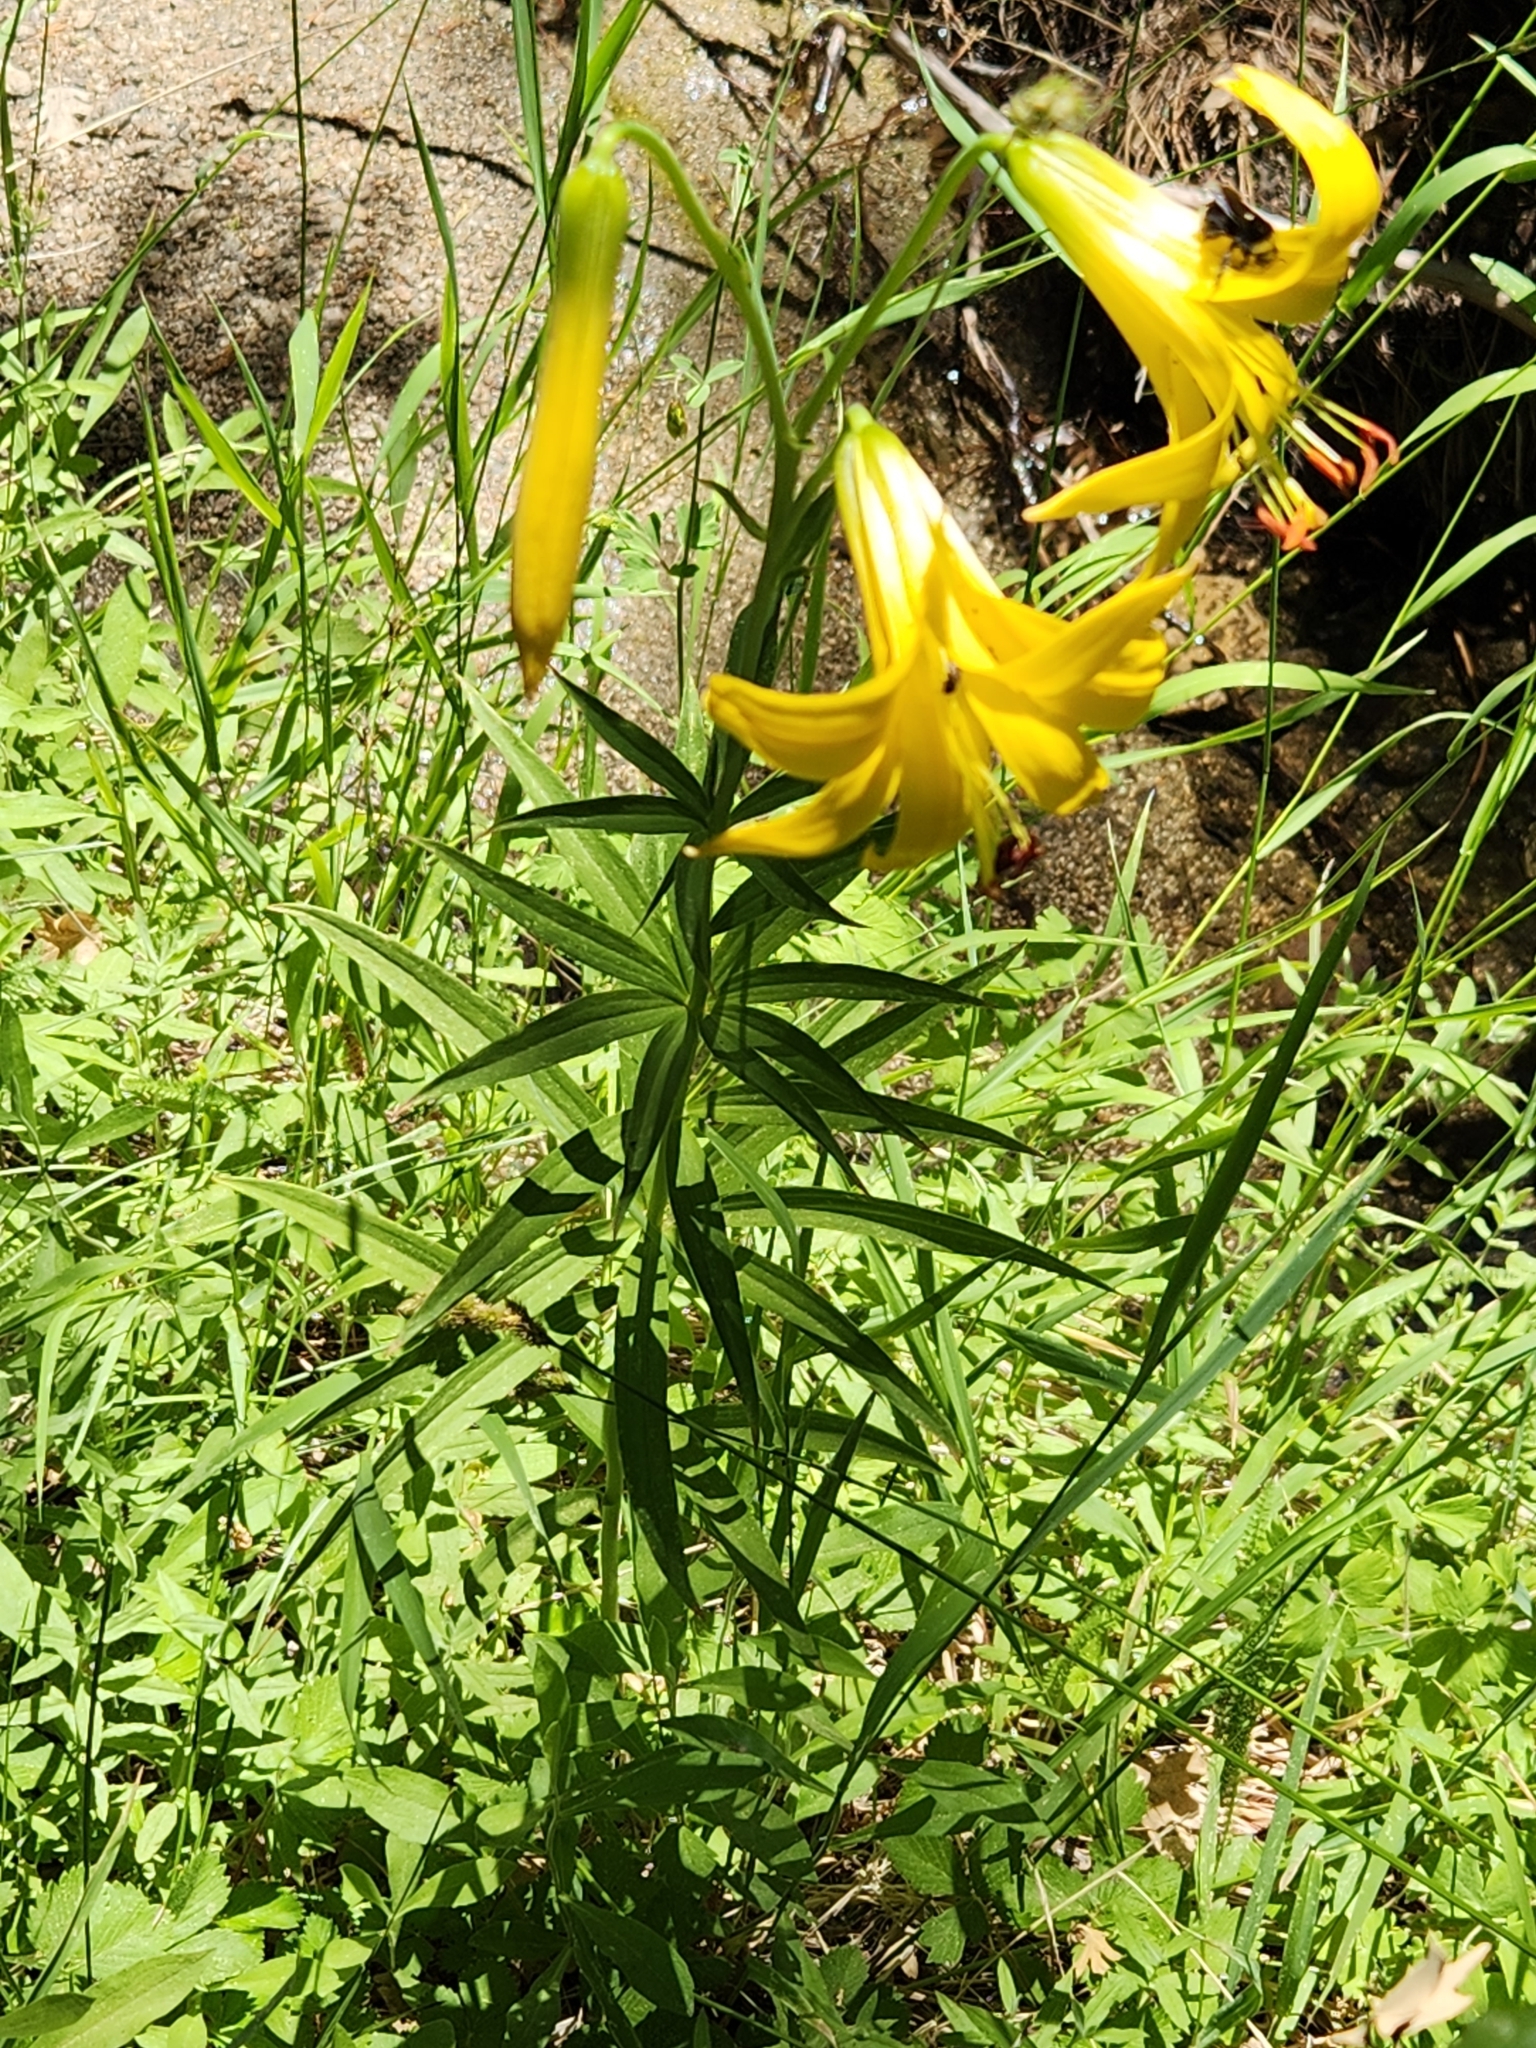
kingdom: Plantae
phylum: Tracheophyta
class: Liliopsida
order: Liliales
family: Liliaceae
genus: Lilium
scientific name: Lilium parryi
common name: Lemon lily
